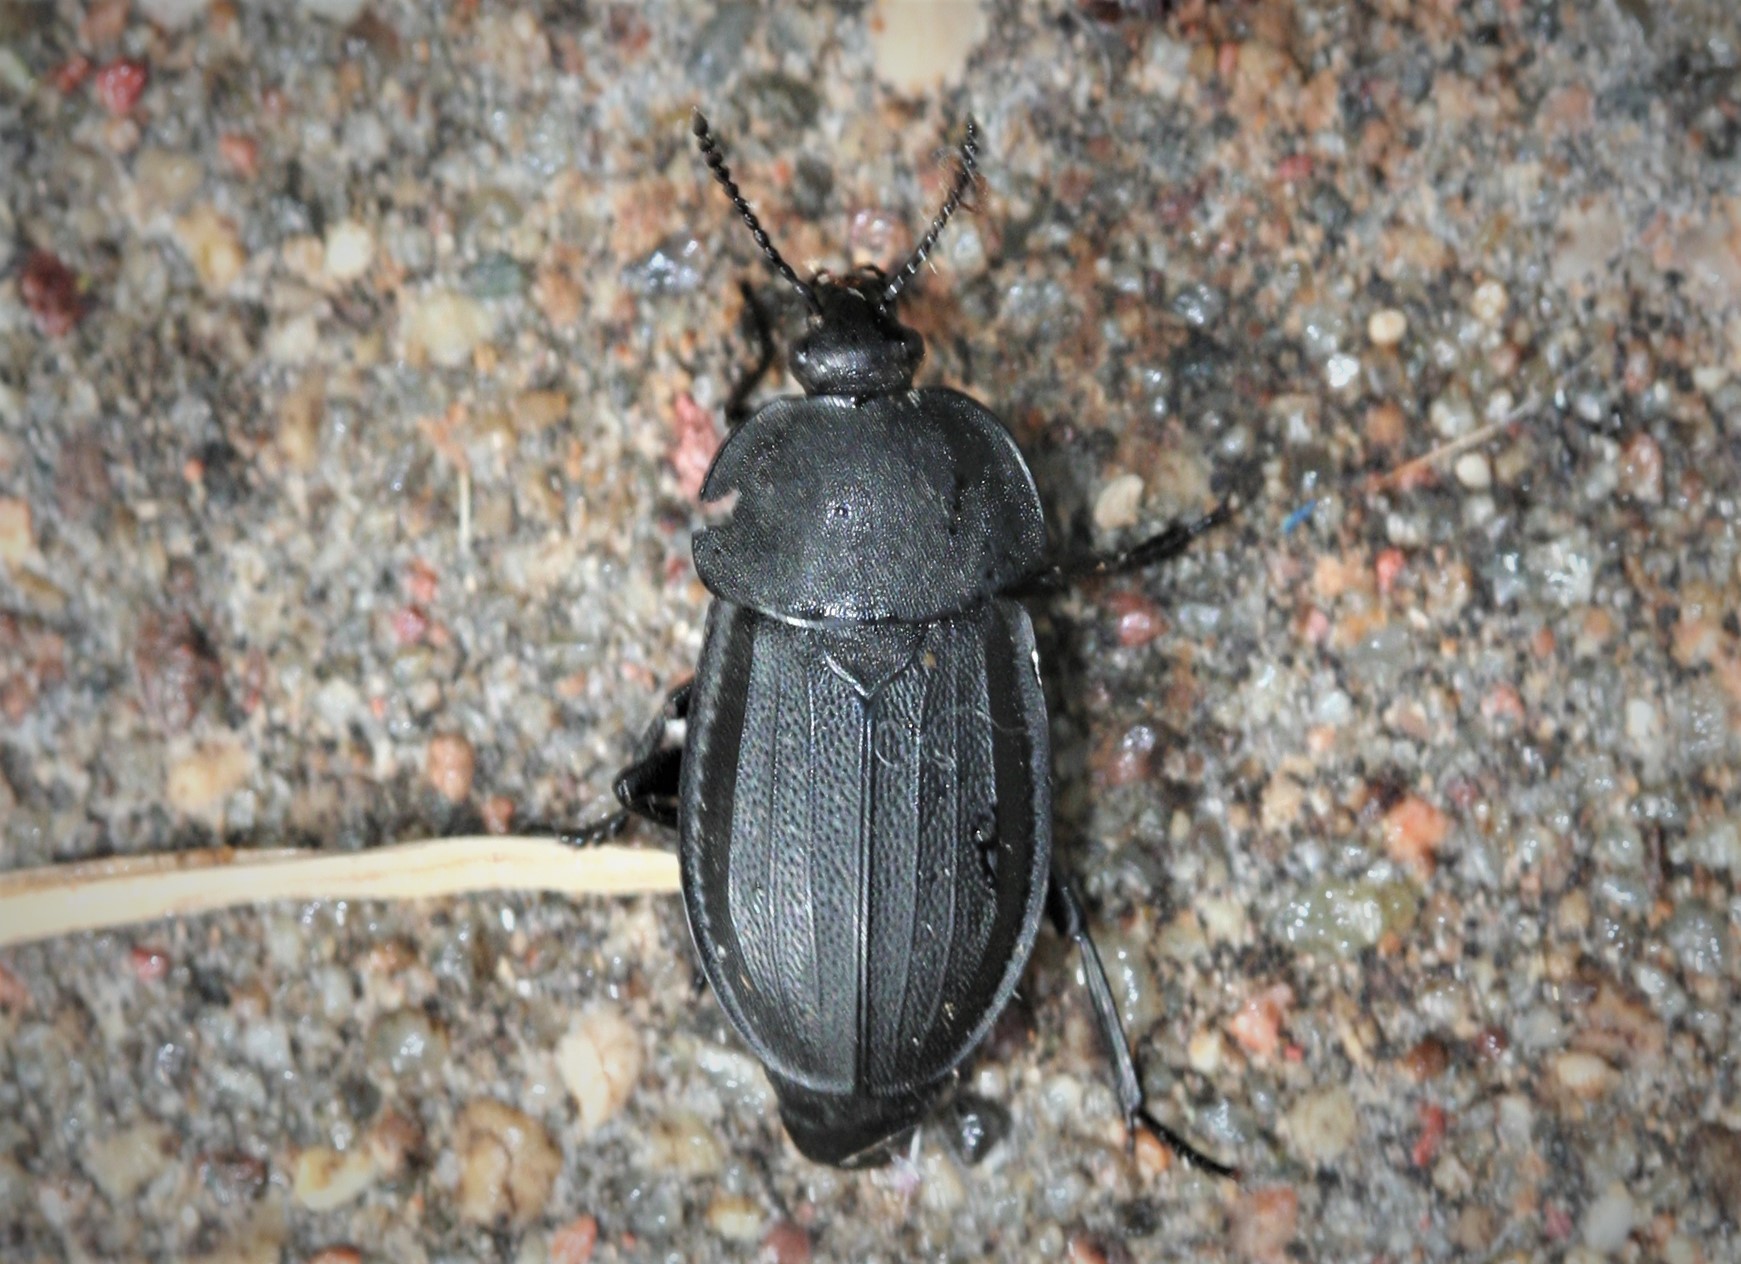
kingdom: Animalia
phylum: Arthropoda
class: Insecta
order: Coleoptera
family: Staphylinidae
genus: Silpha
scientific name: Silpha obscura
